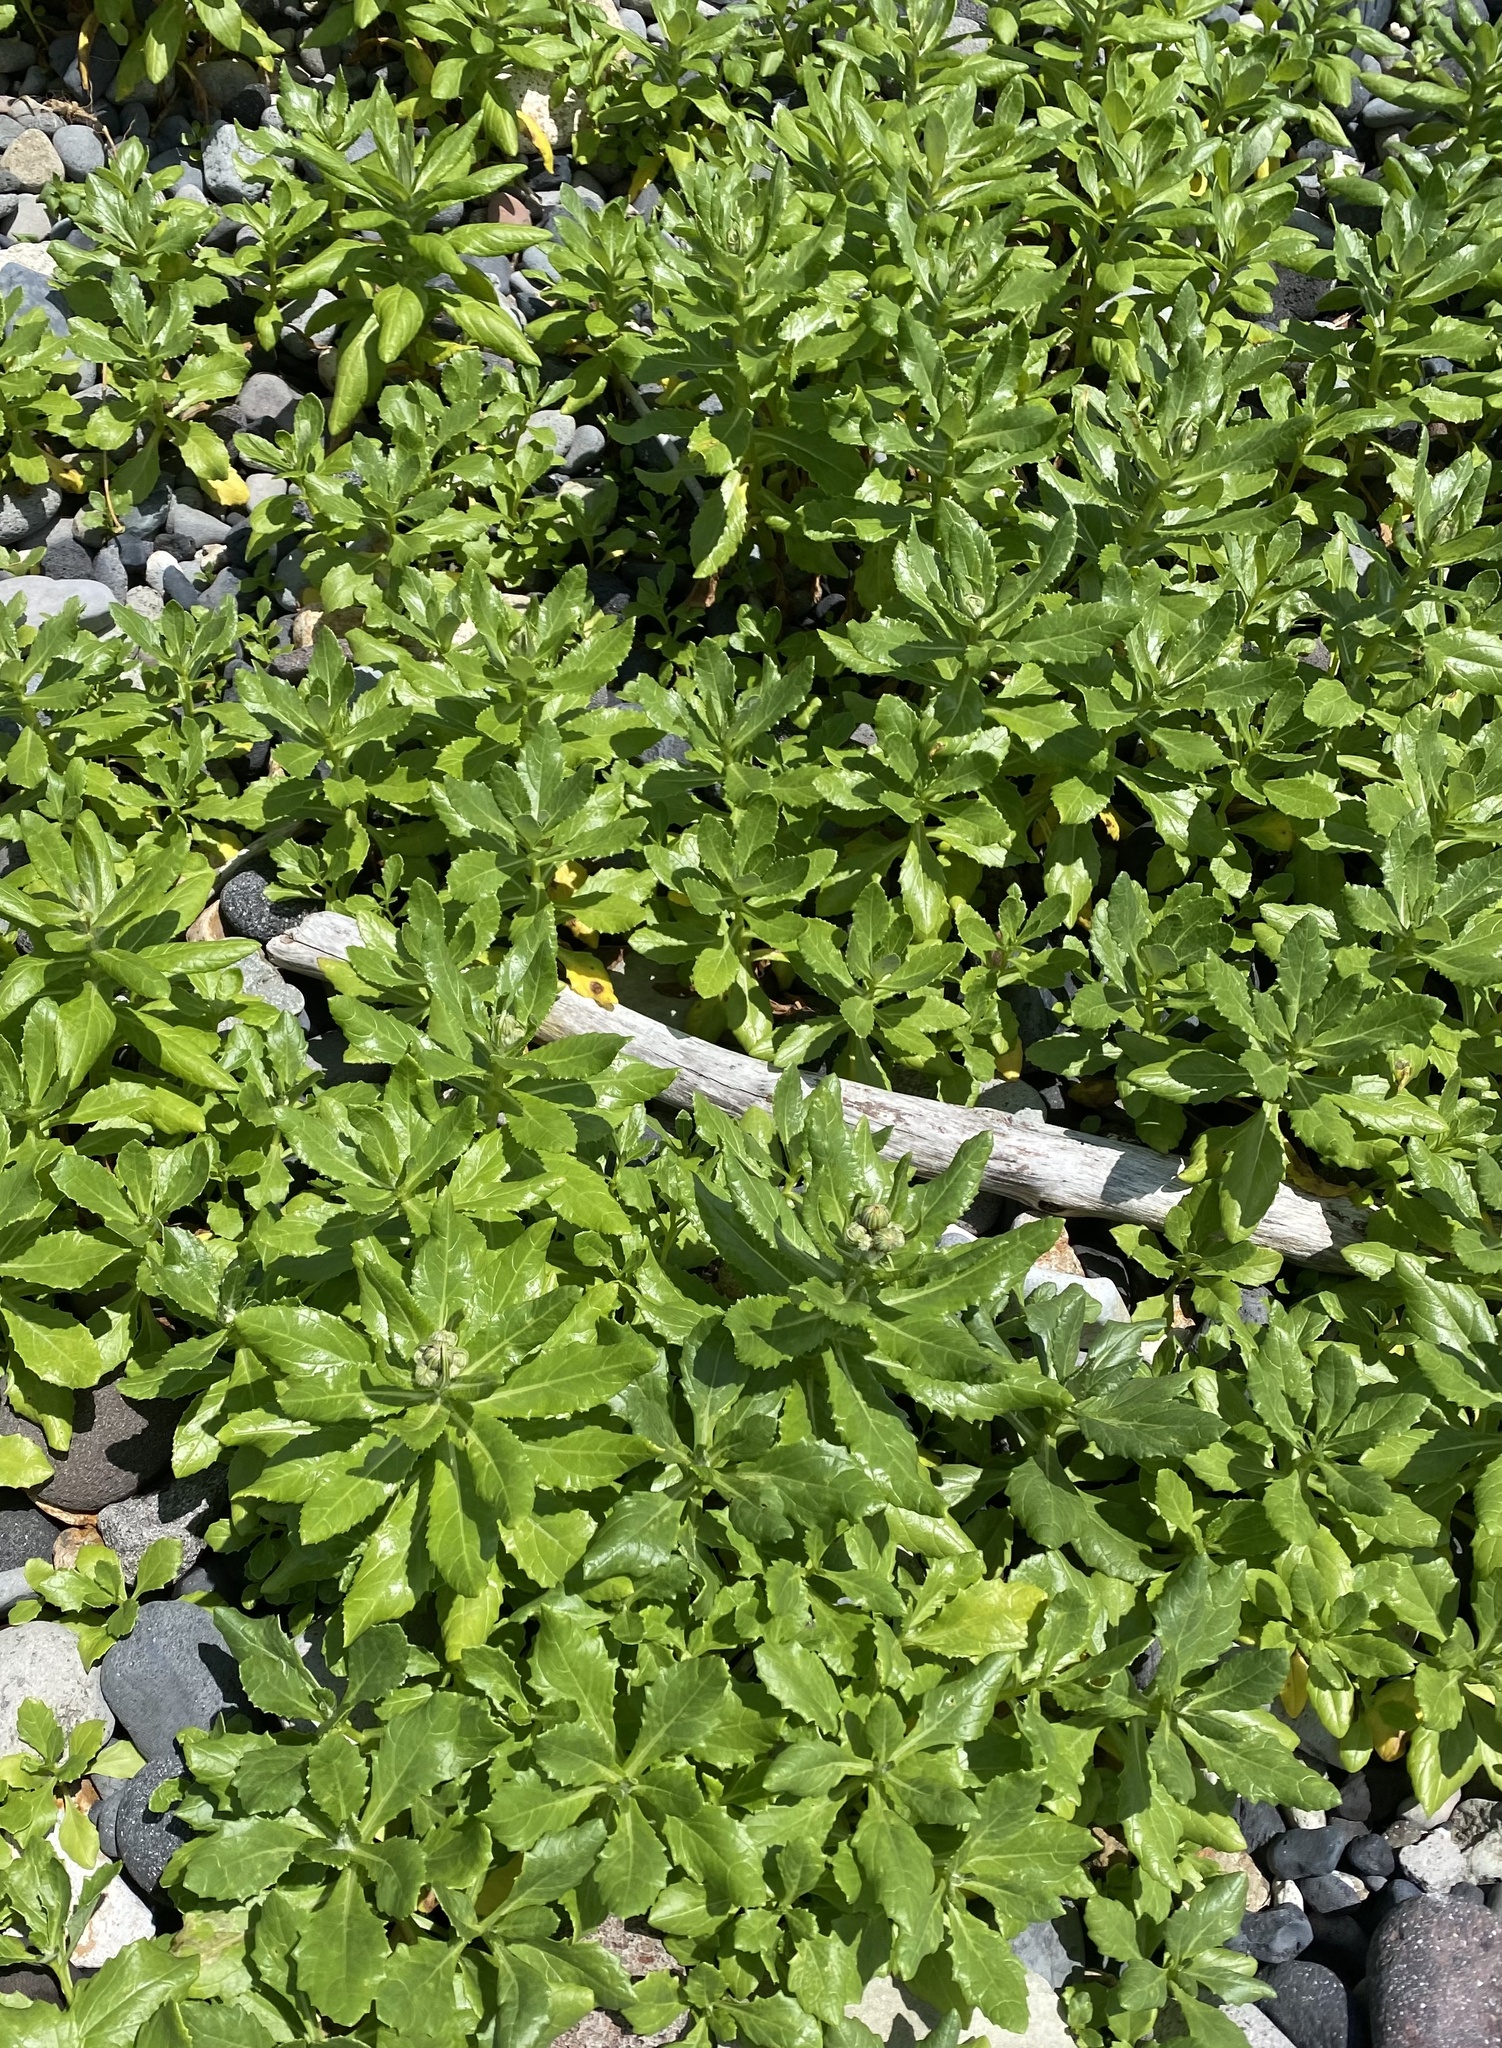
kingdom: Plantae
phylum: Tracheophyta
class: Magnoliopsida
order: Asterales
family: Asteraceae
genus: Jacobaea
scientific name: Jacobaea pseudoarnica
